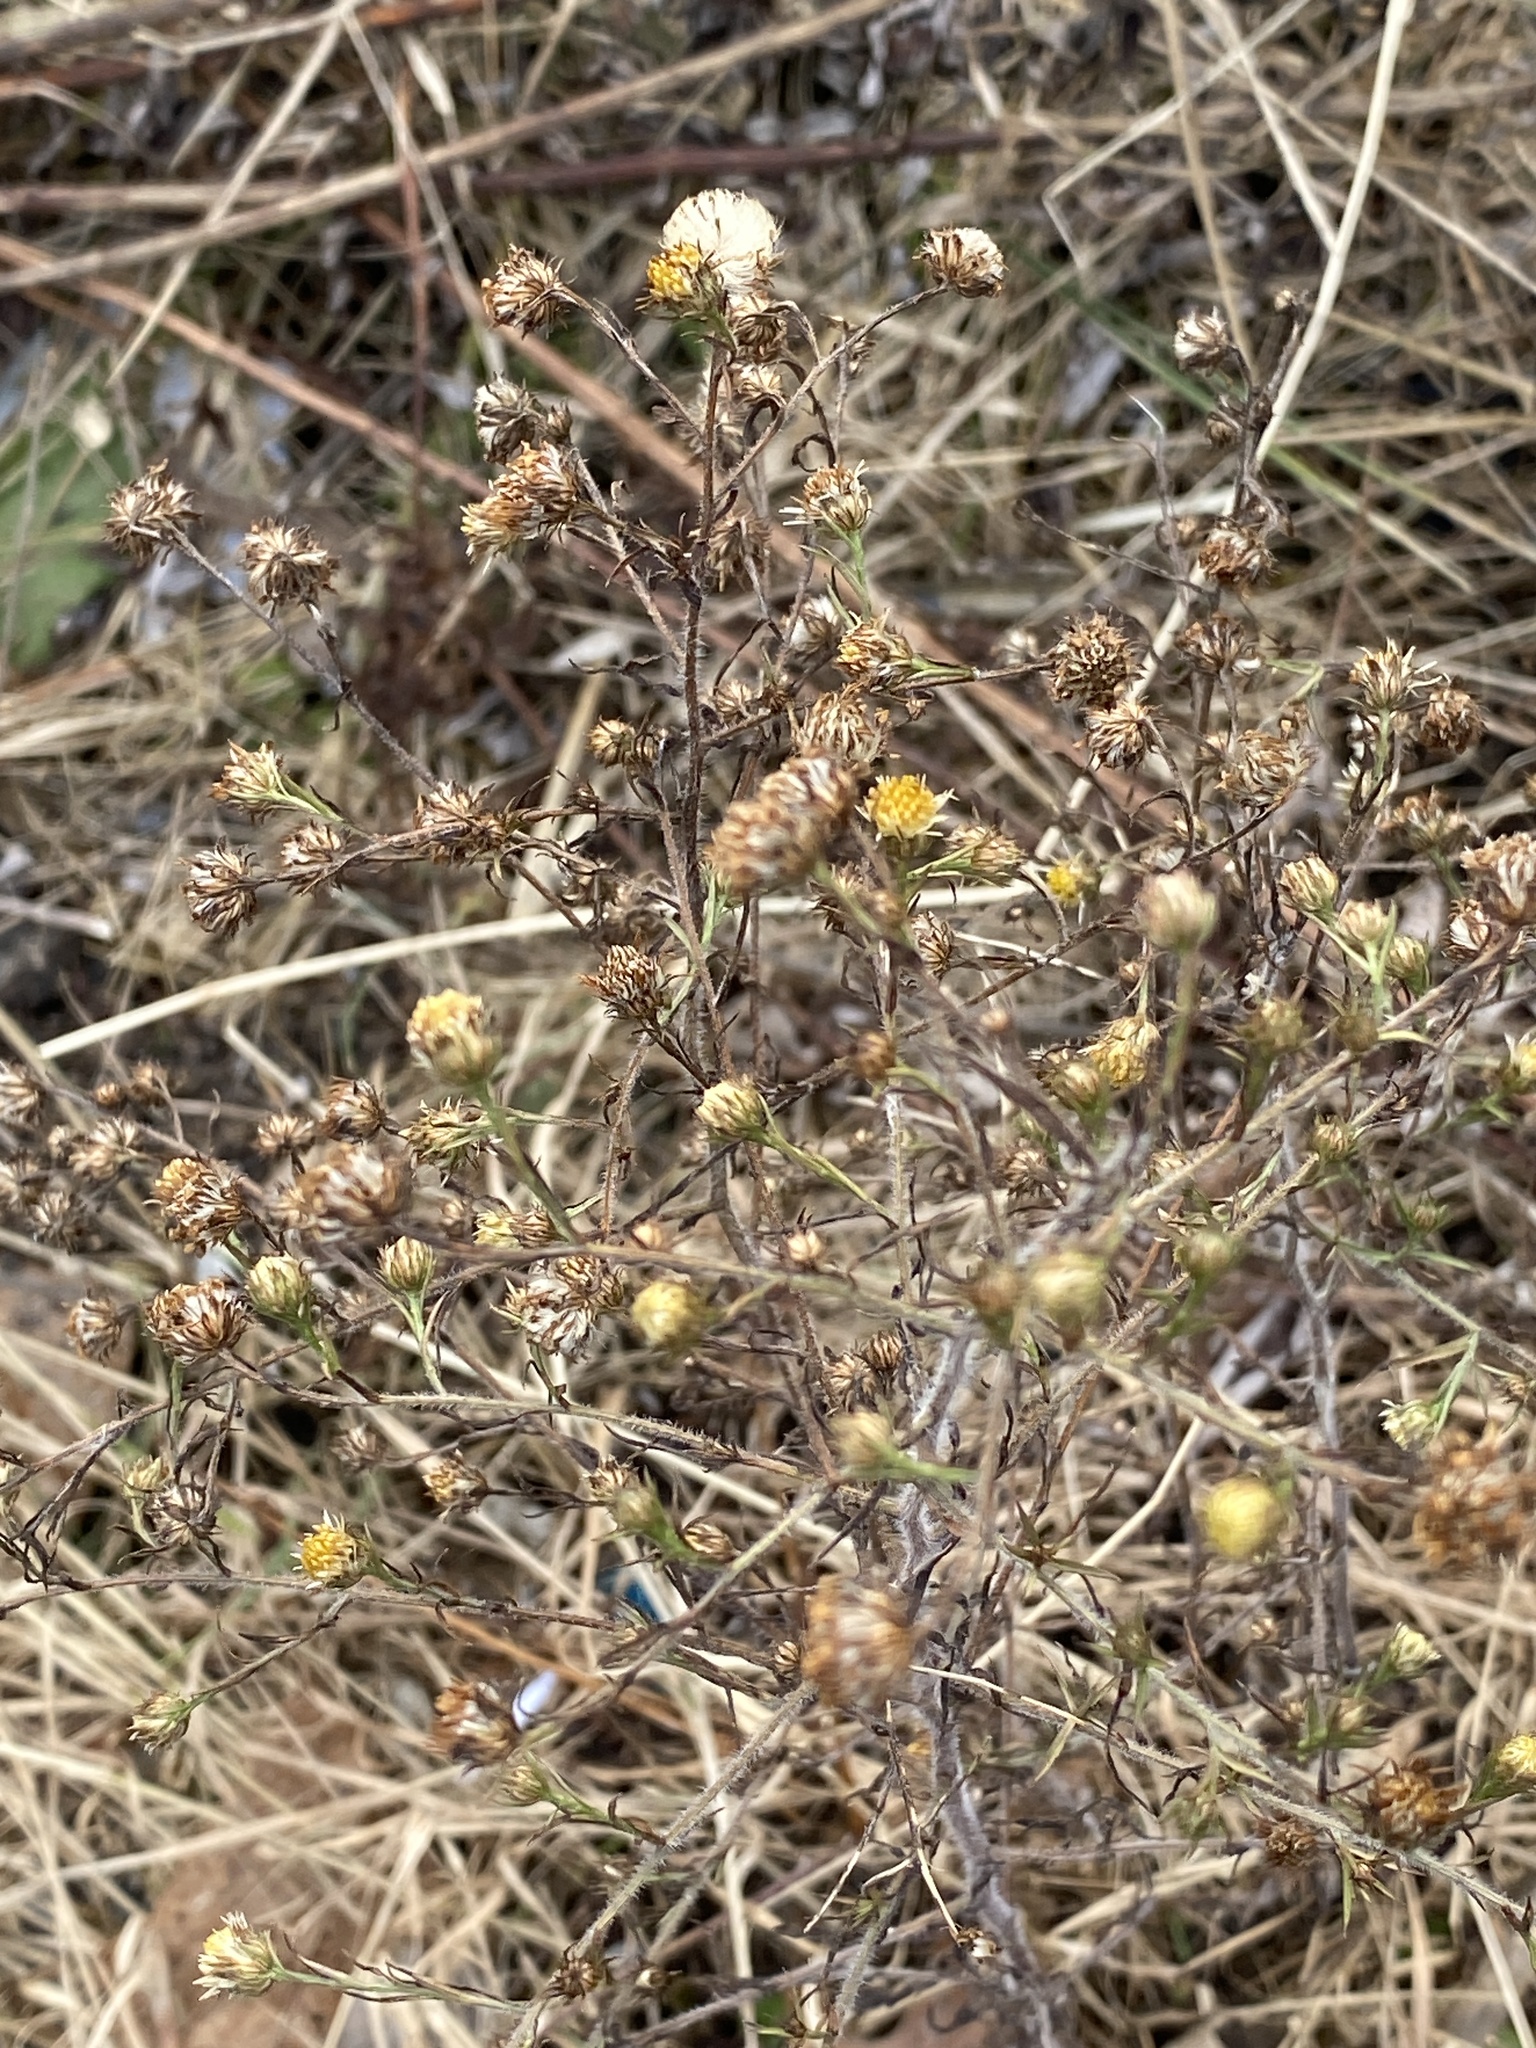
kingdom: Plantae
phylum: Tracheophyta
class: Magnoliopsida
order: Asterales
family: Asteraceae
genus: Symphyotrichum
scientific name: Symphyotrichum pilosum
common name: Awl aster
